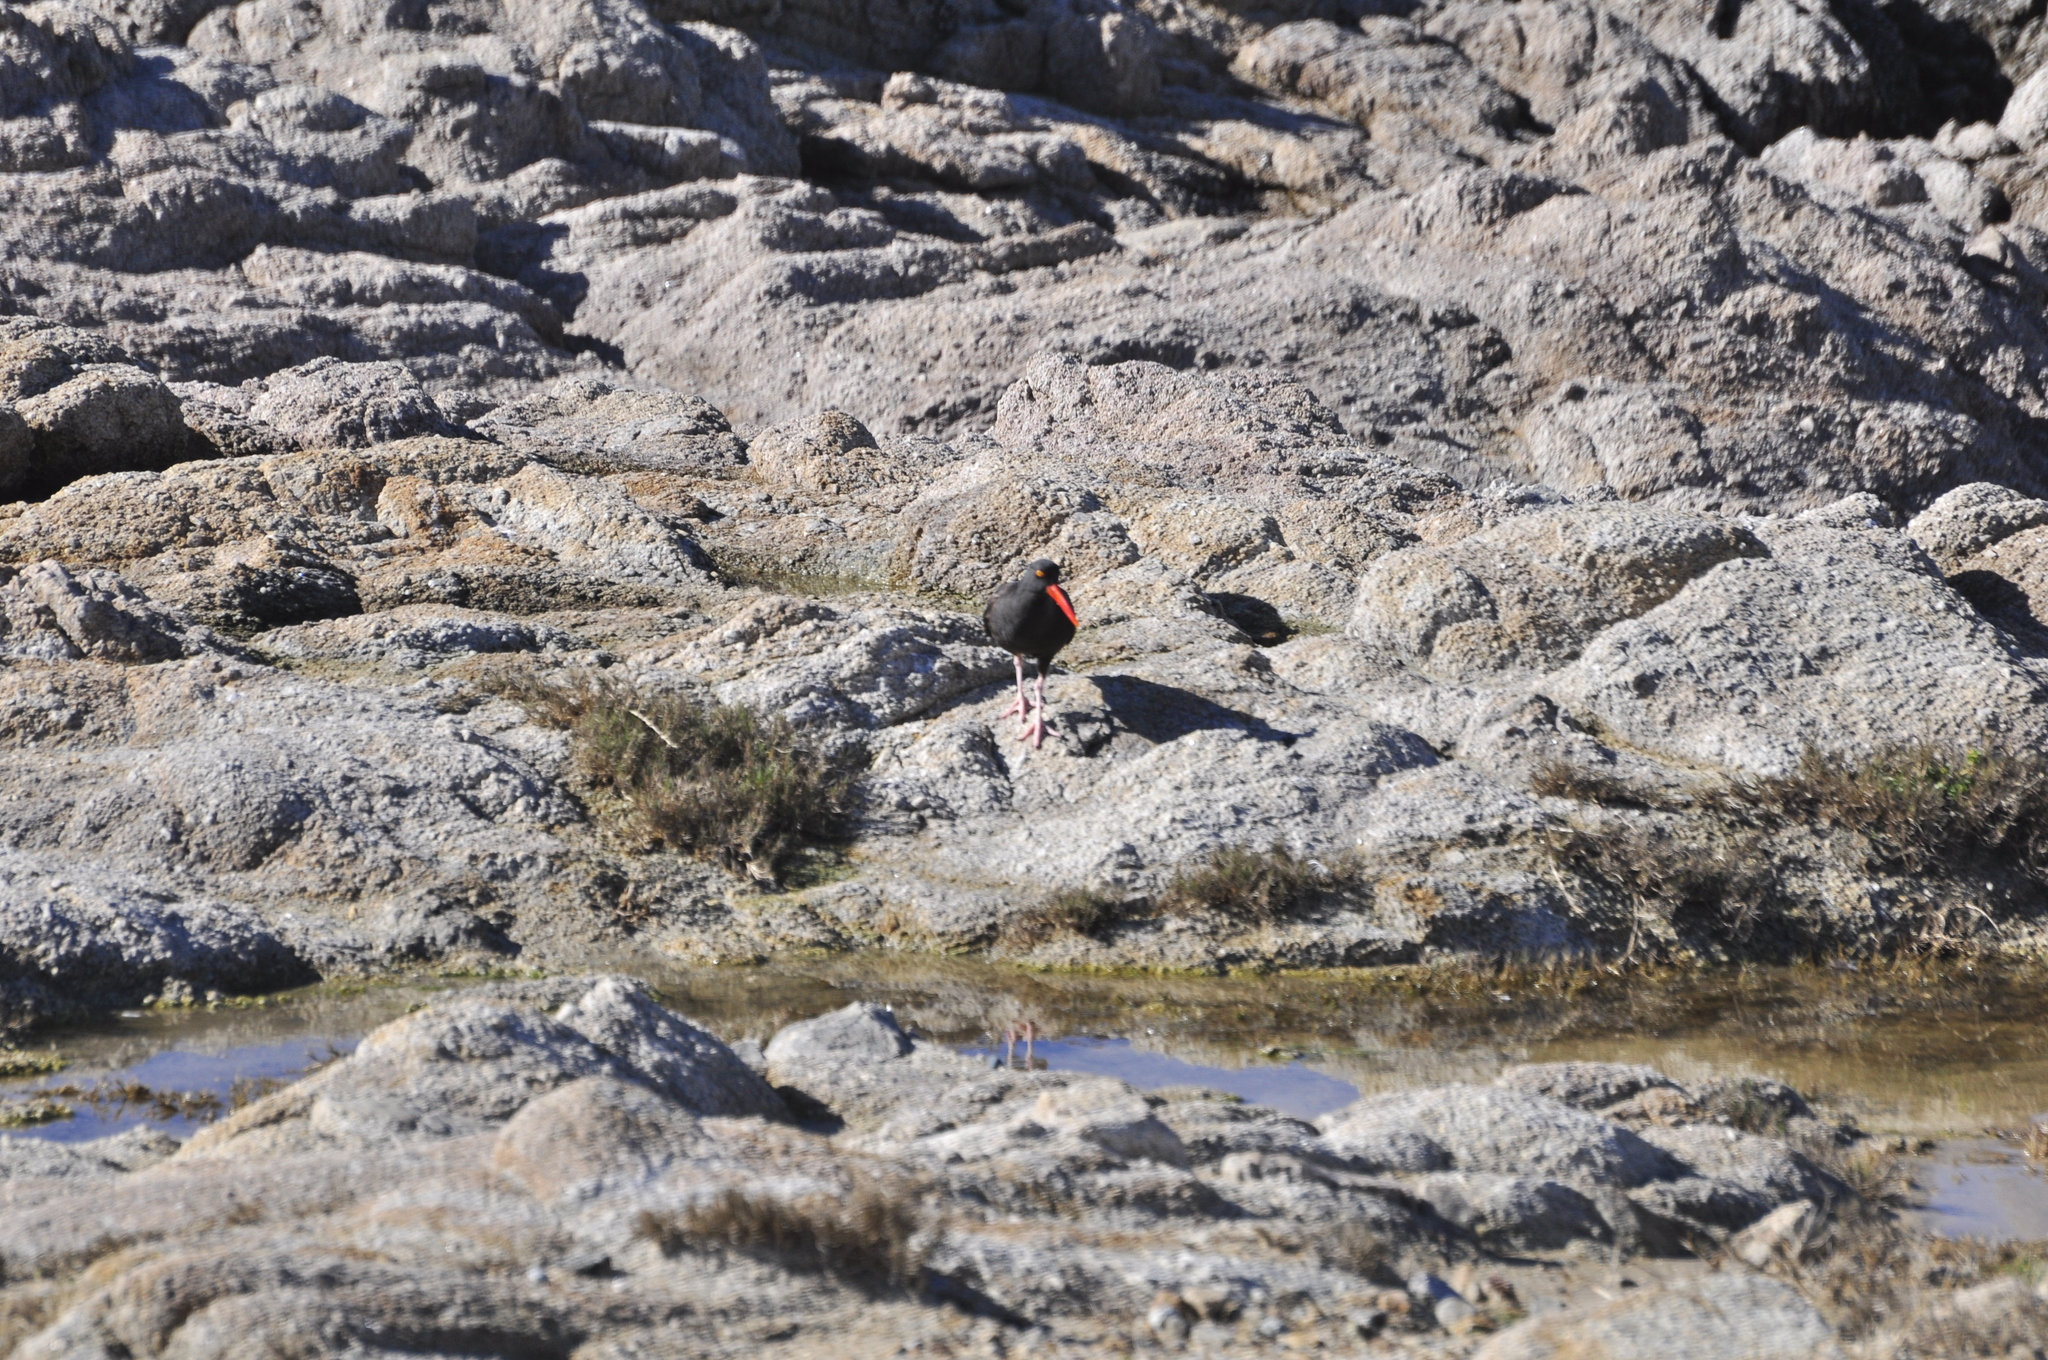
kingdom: Animalia
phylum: Chordata
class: Aves
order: Charadriiformes
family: Haematopodidae
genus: Haematopus
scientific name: Haematopus bachmani
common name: Black oystercatcher
